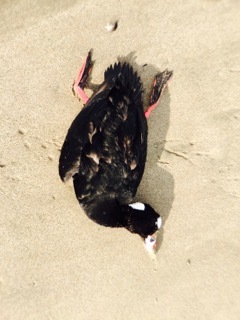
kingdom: Animalia
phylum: Chordata
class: Aves
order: Anseriformes
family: Anatidae
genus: Melanitta
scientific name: Melanitta perspicillata
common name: Surf scoter
